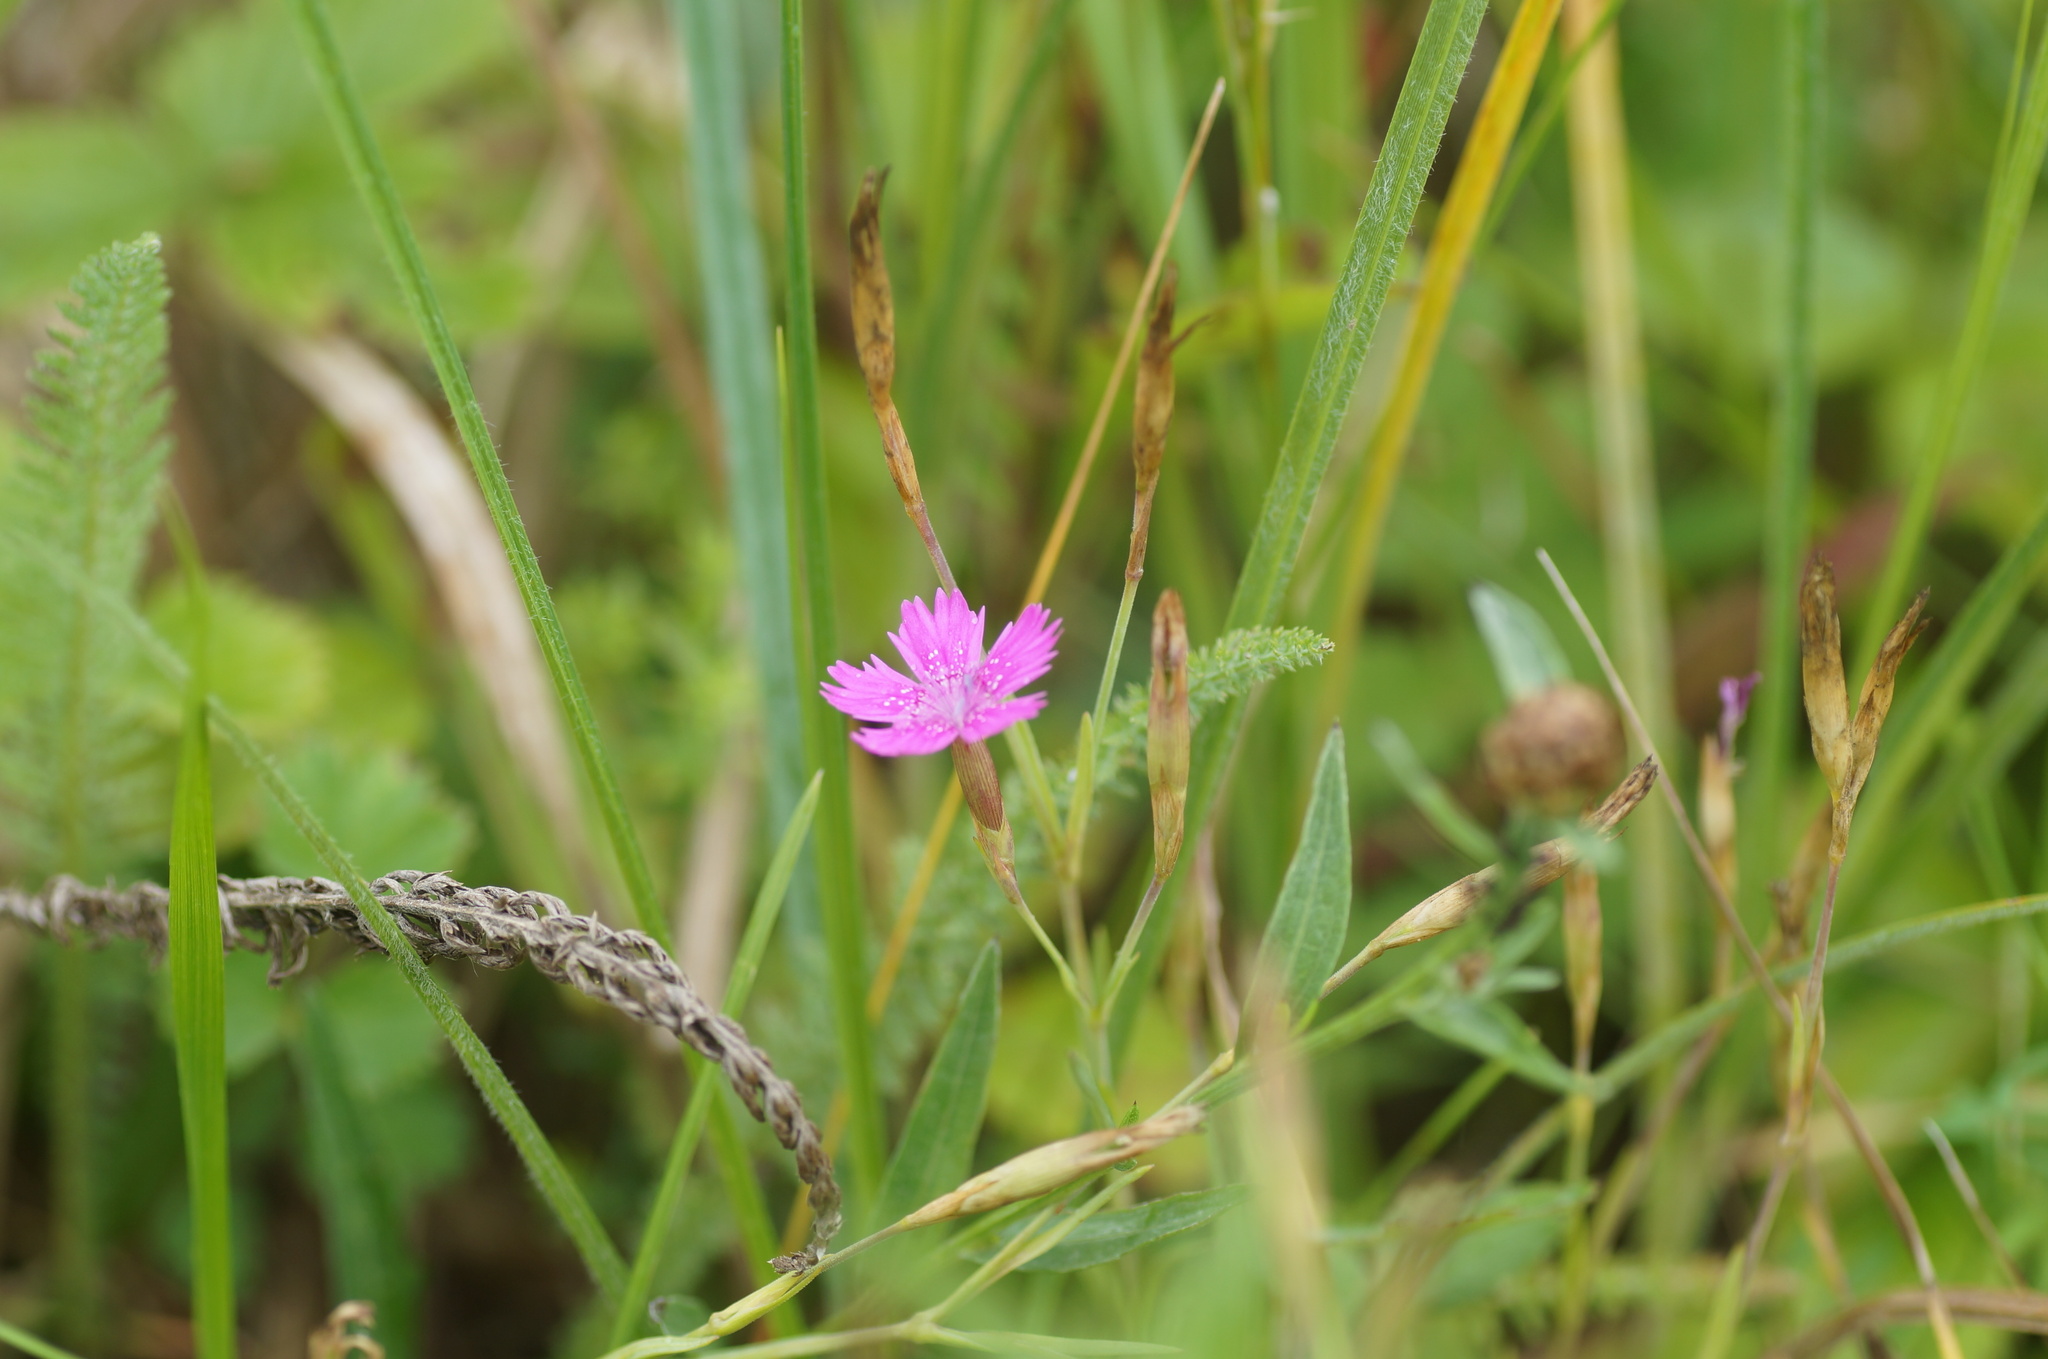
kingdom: Plantae
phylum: Tracheophyta
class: Magnoliopsida
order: Caryophyllales
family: Caryophyllaceae
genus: Dianthus
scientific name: Dianthus deltoides
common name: Maiden pink
